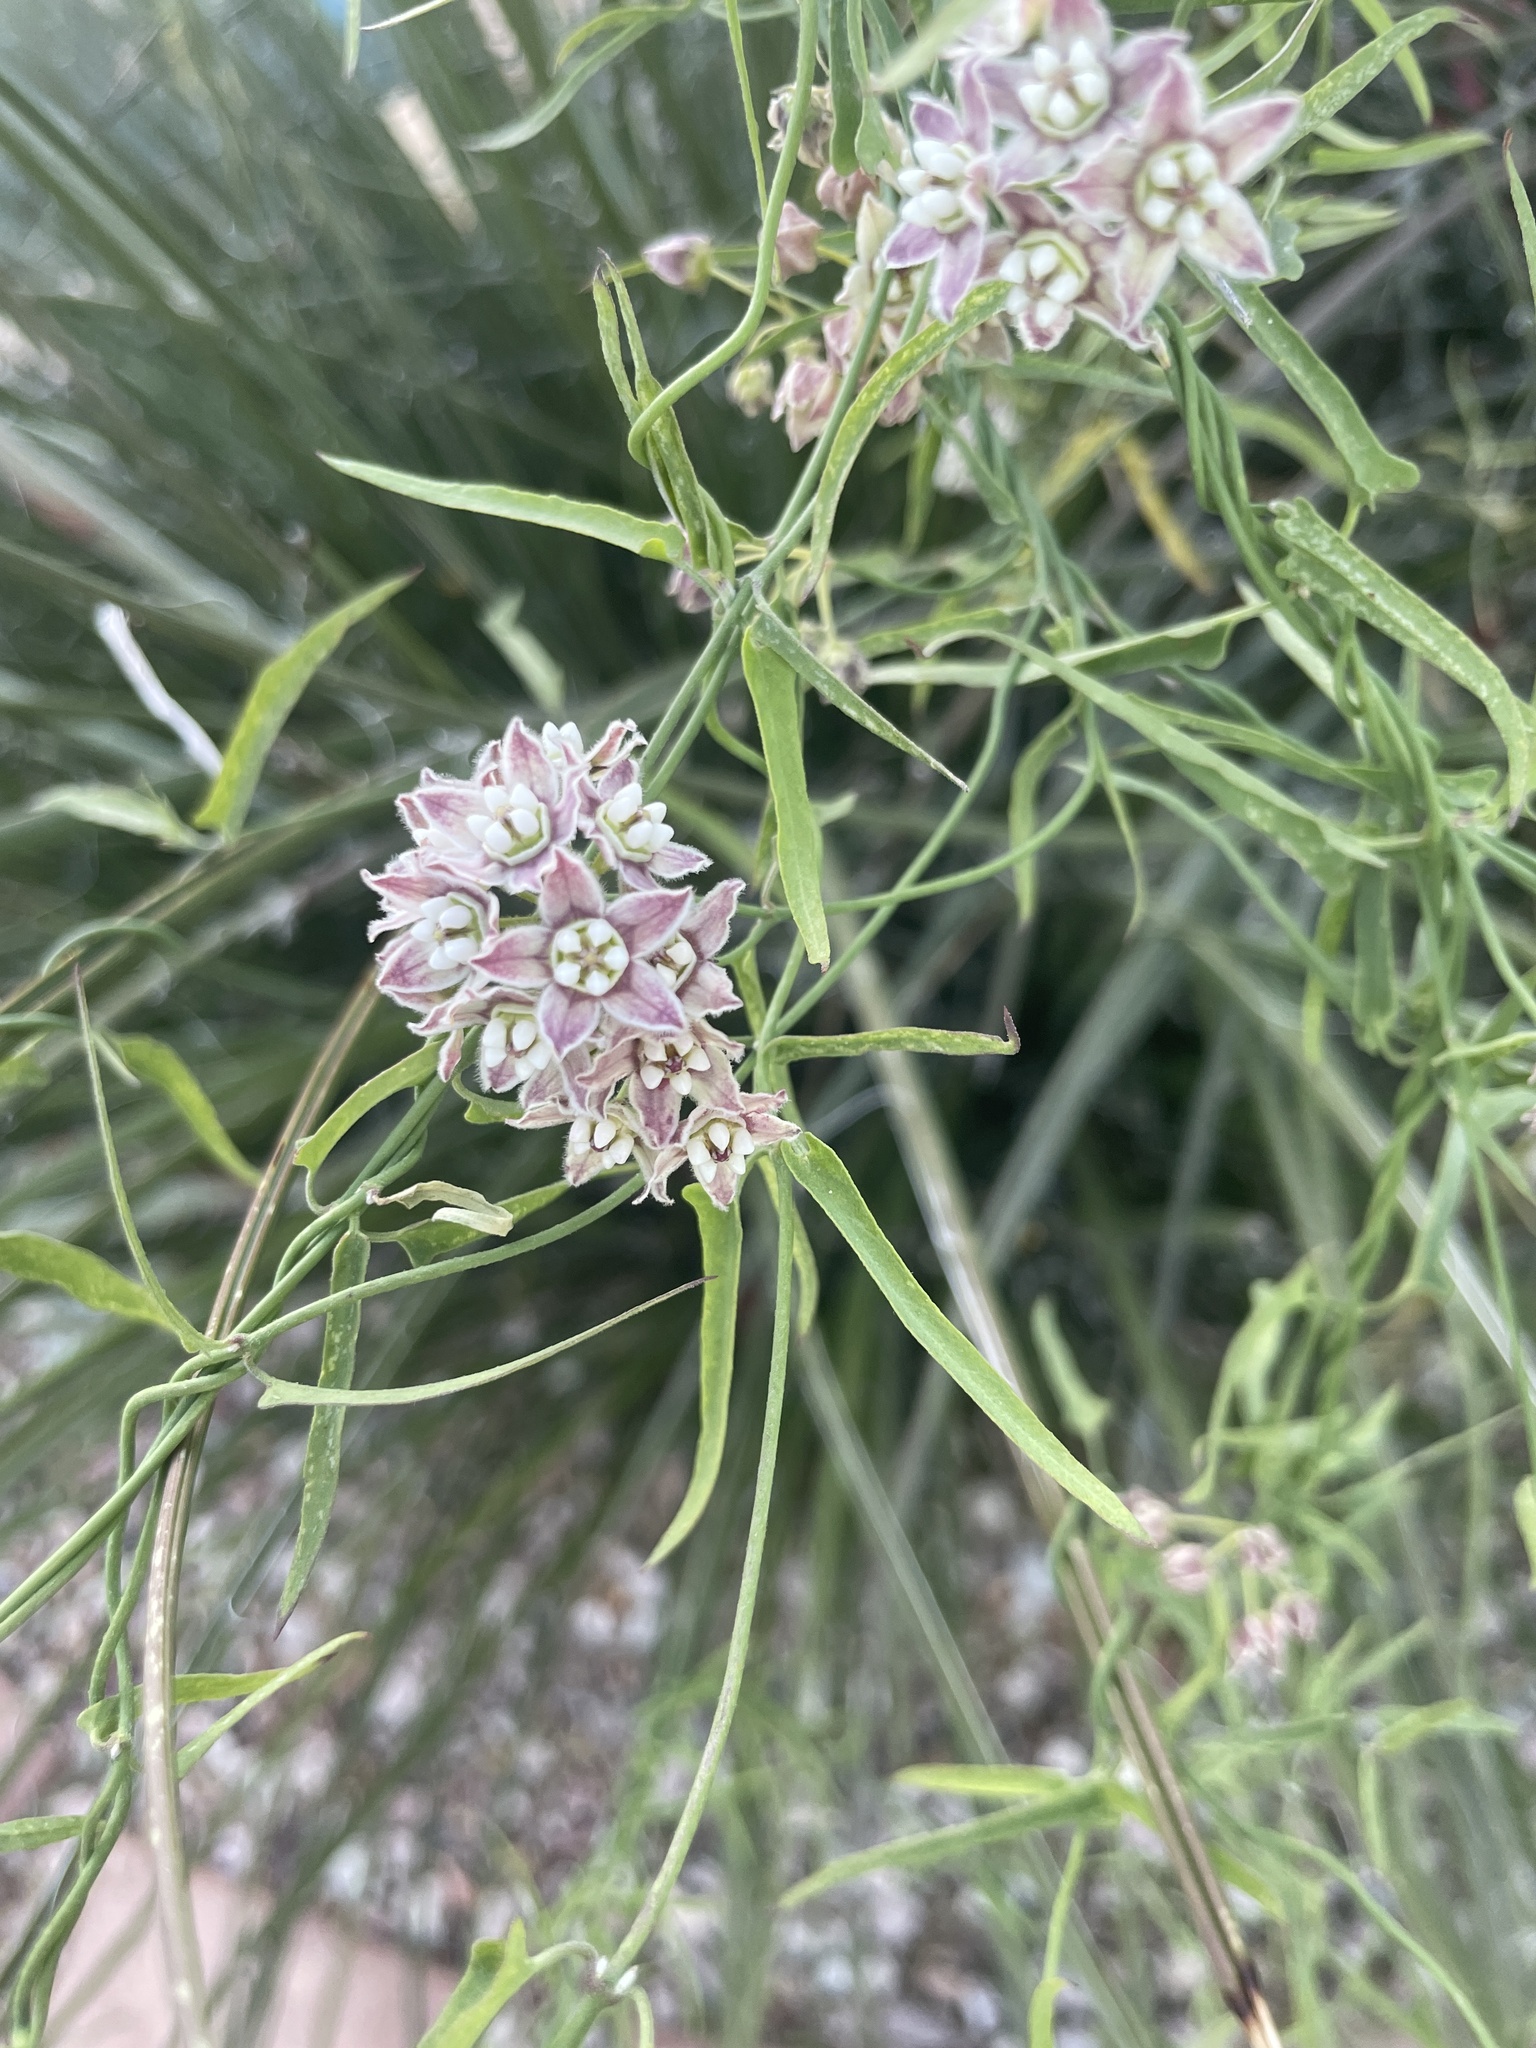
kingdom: Plantae
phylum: Tracheophyta
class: Magnoliopsida
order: Gentianales
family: Apocynaceae
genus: Funastrum
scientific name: Funastrum heterophyllum
